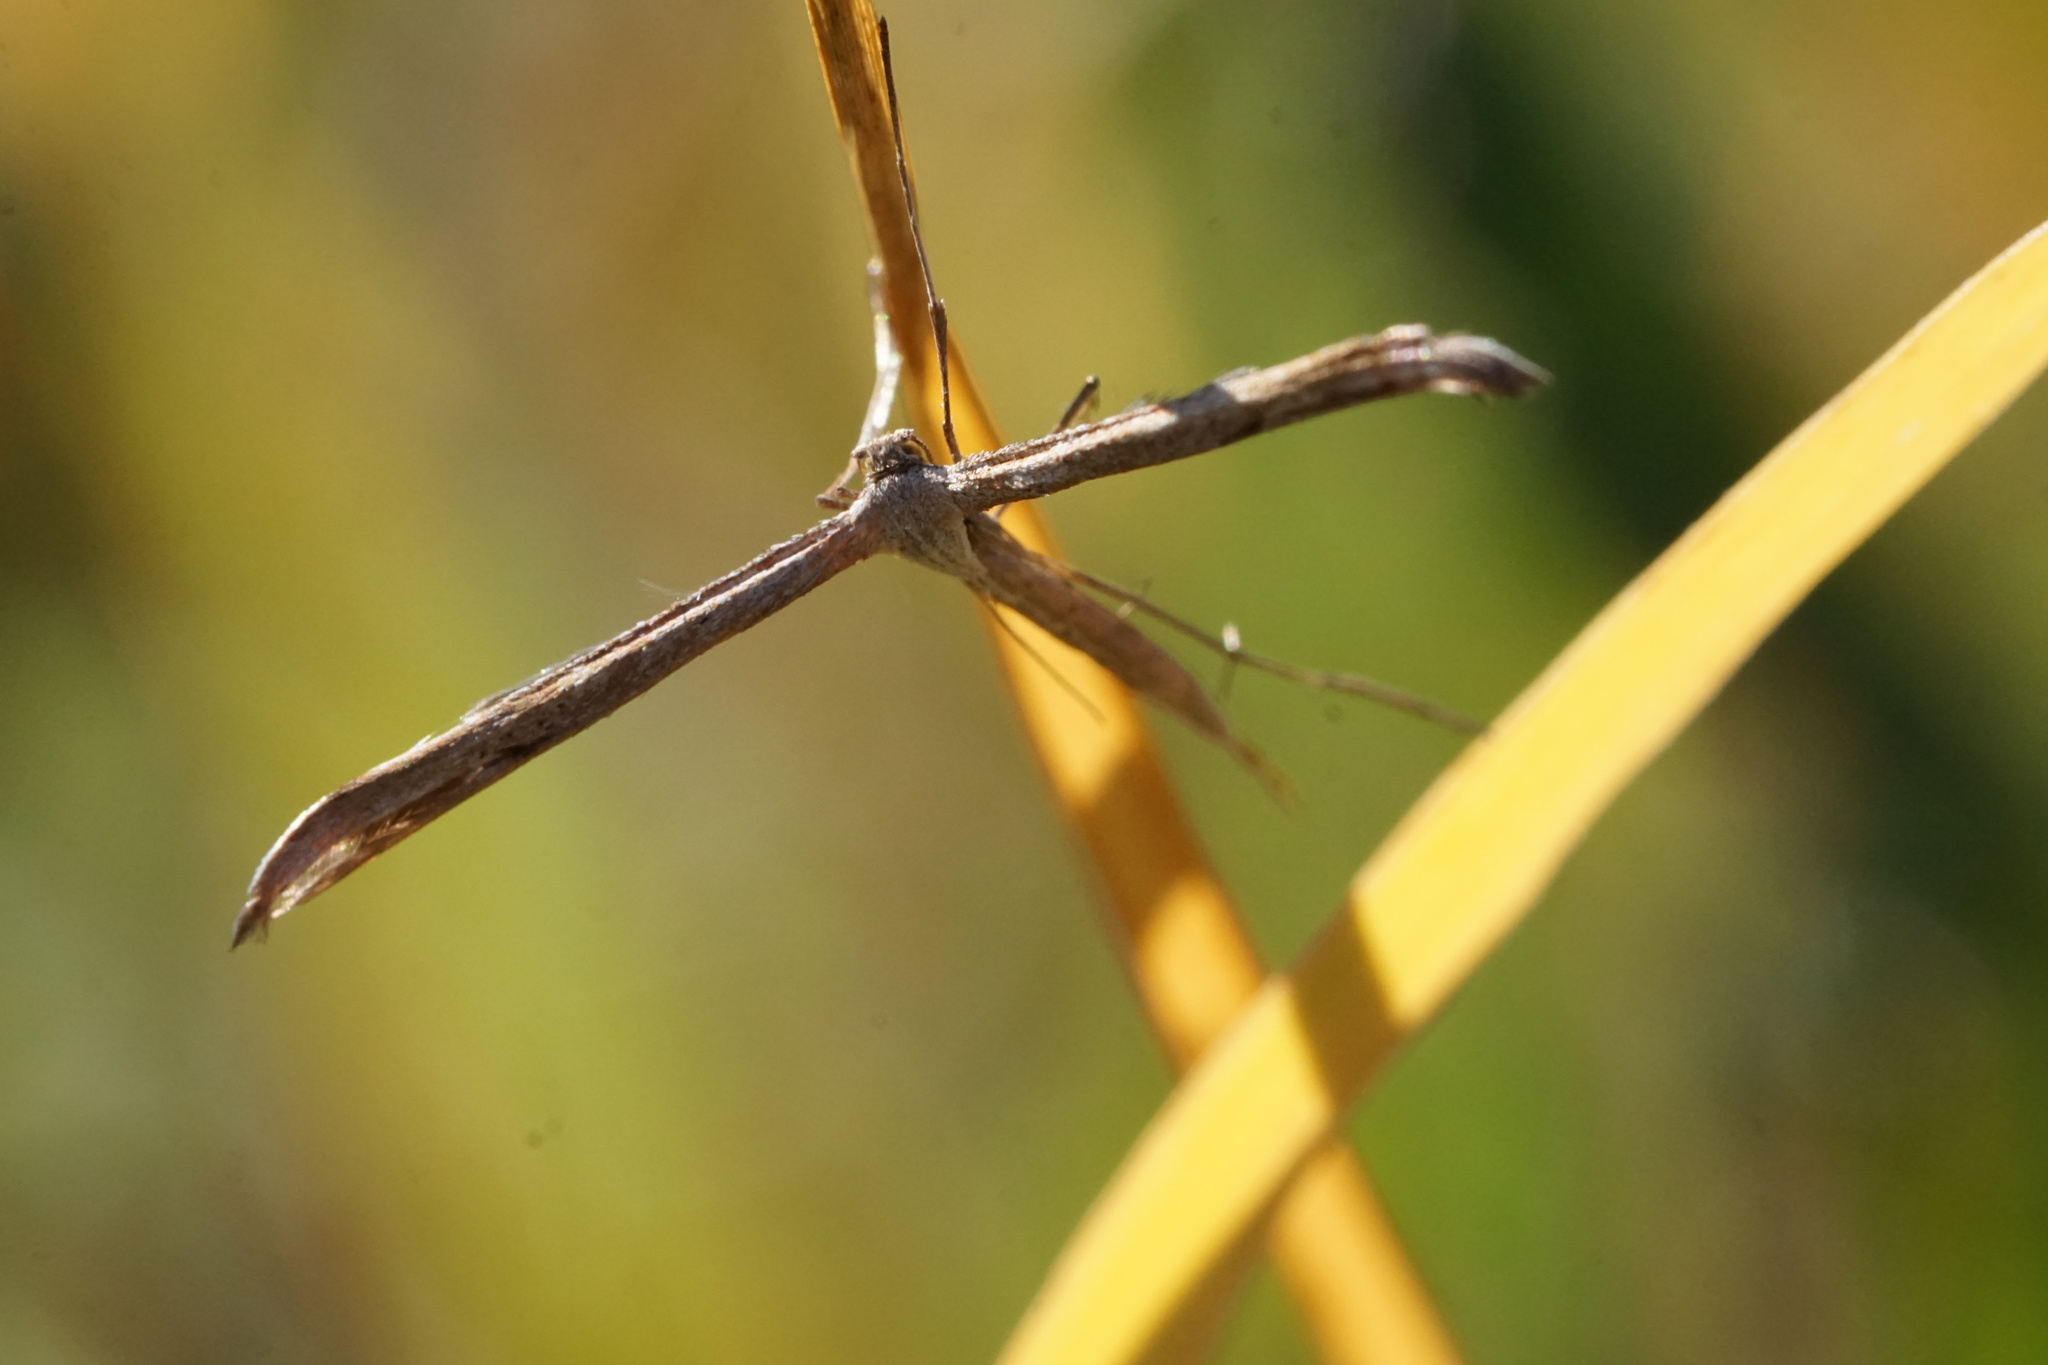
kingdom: Animalia
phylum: Arthropoda
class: Insecta
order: Lepidoptera
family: Pterophoridae
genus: Emmelina
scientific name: Emmelina monodactyla
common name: Common plume
